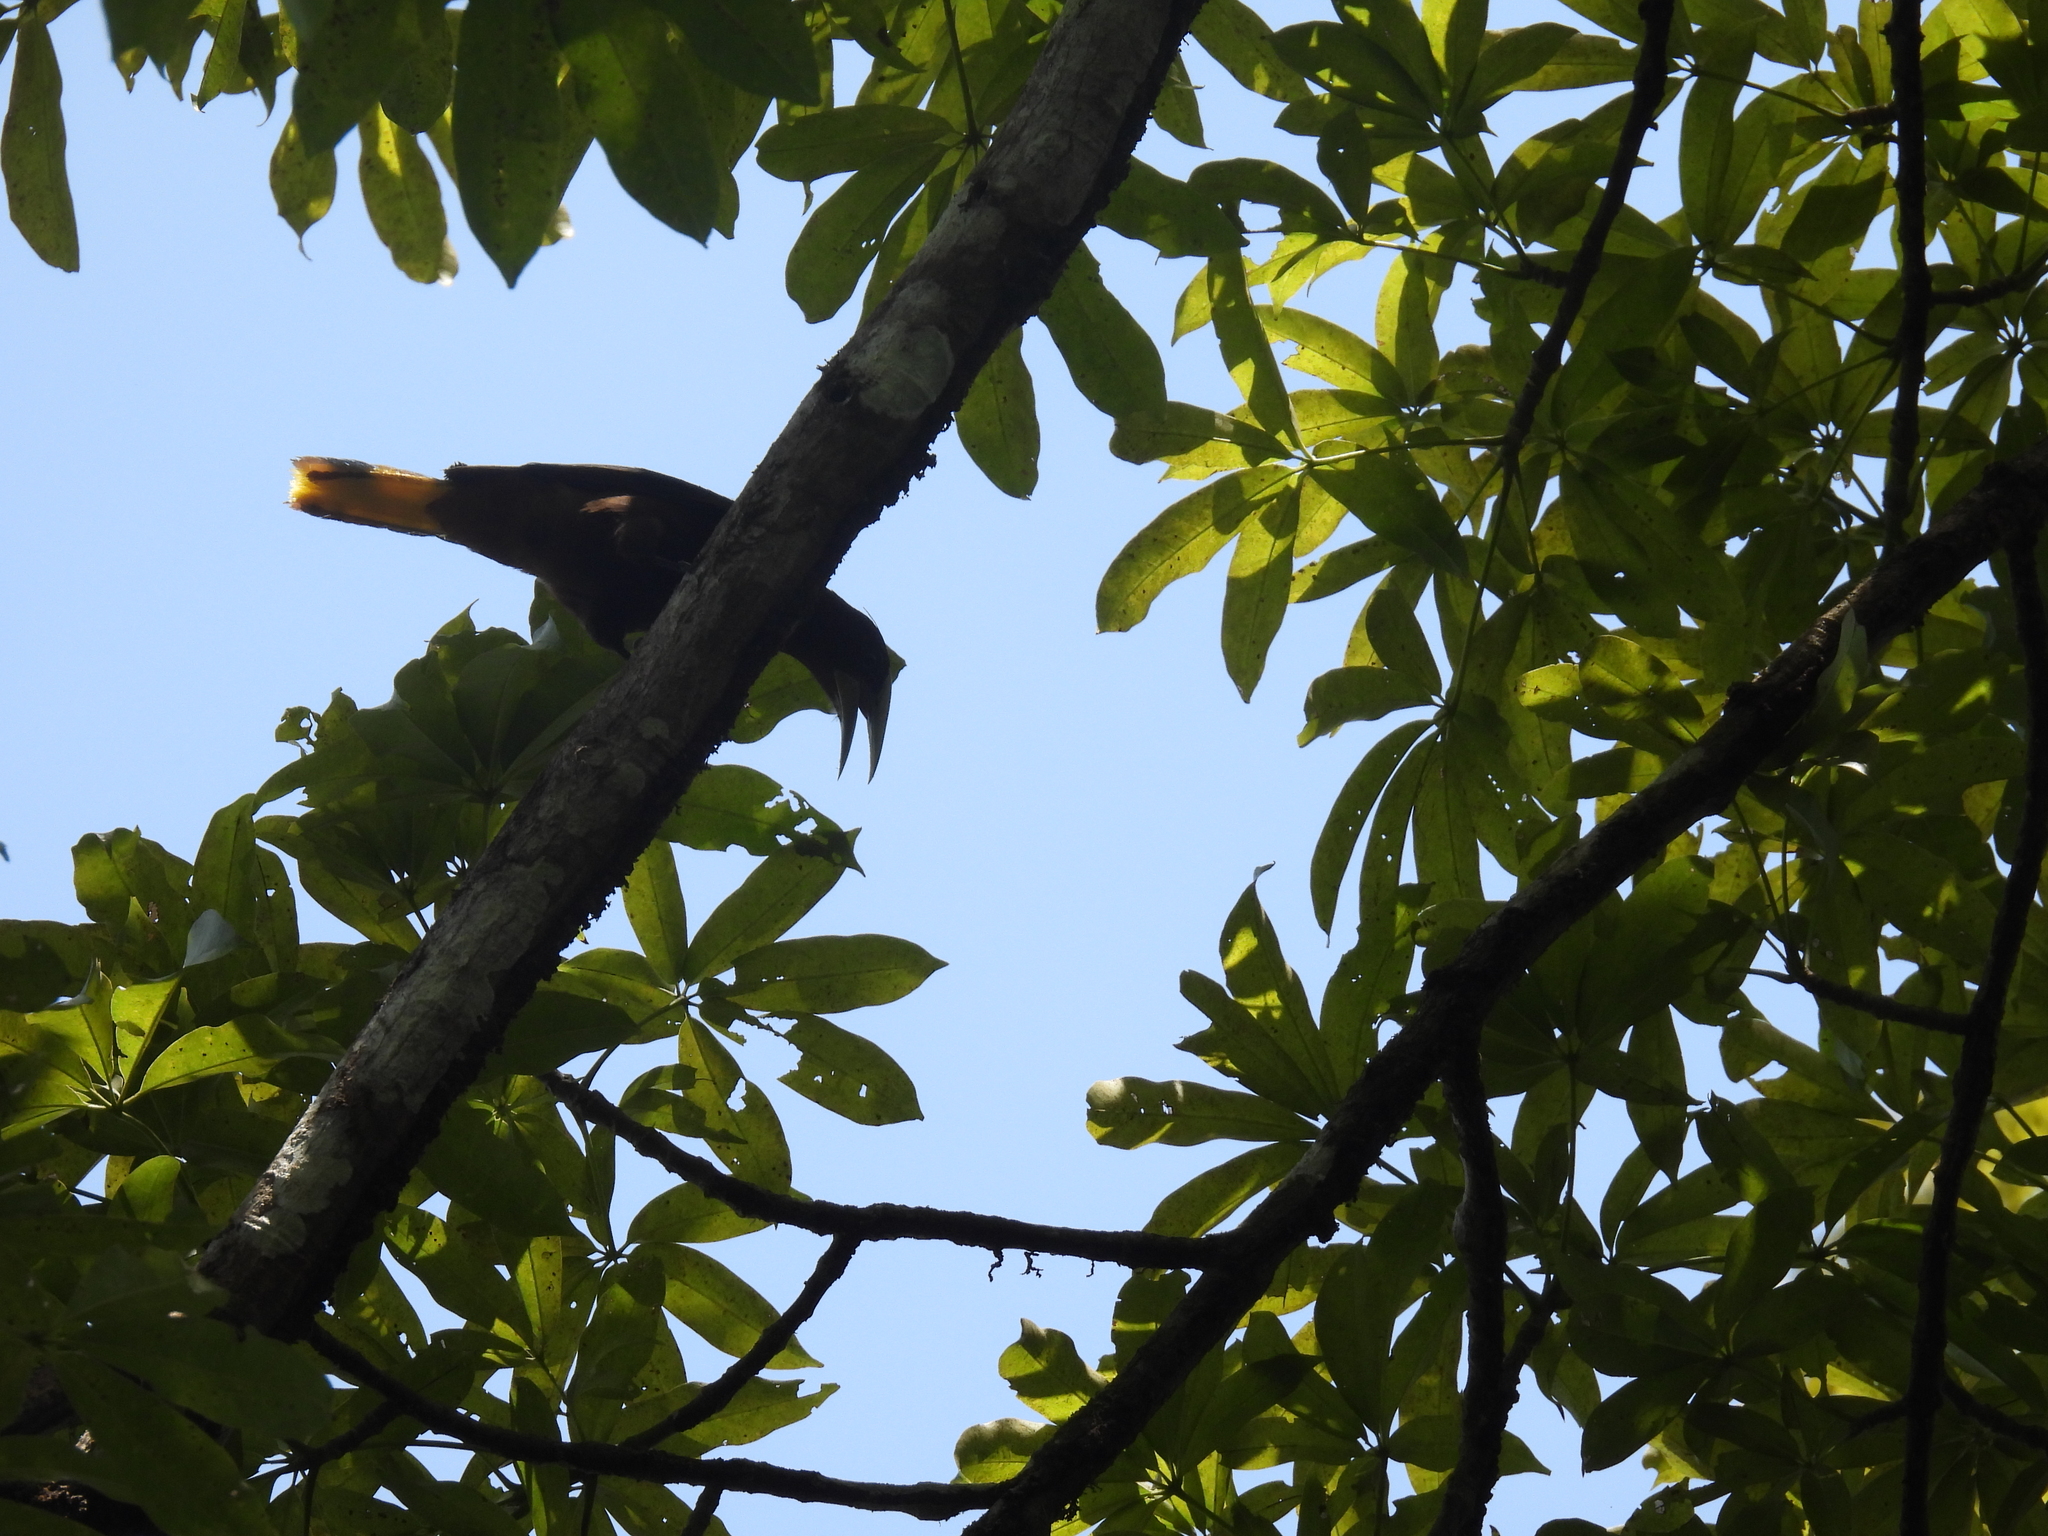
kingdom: Animalia
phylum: Chordata
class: Aves
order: Passeriformes
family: Icteridae
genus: Psarocolius
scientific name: Psarocolius wagleri
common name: Chestnut-headed oropendola
